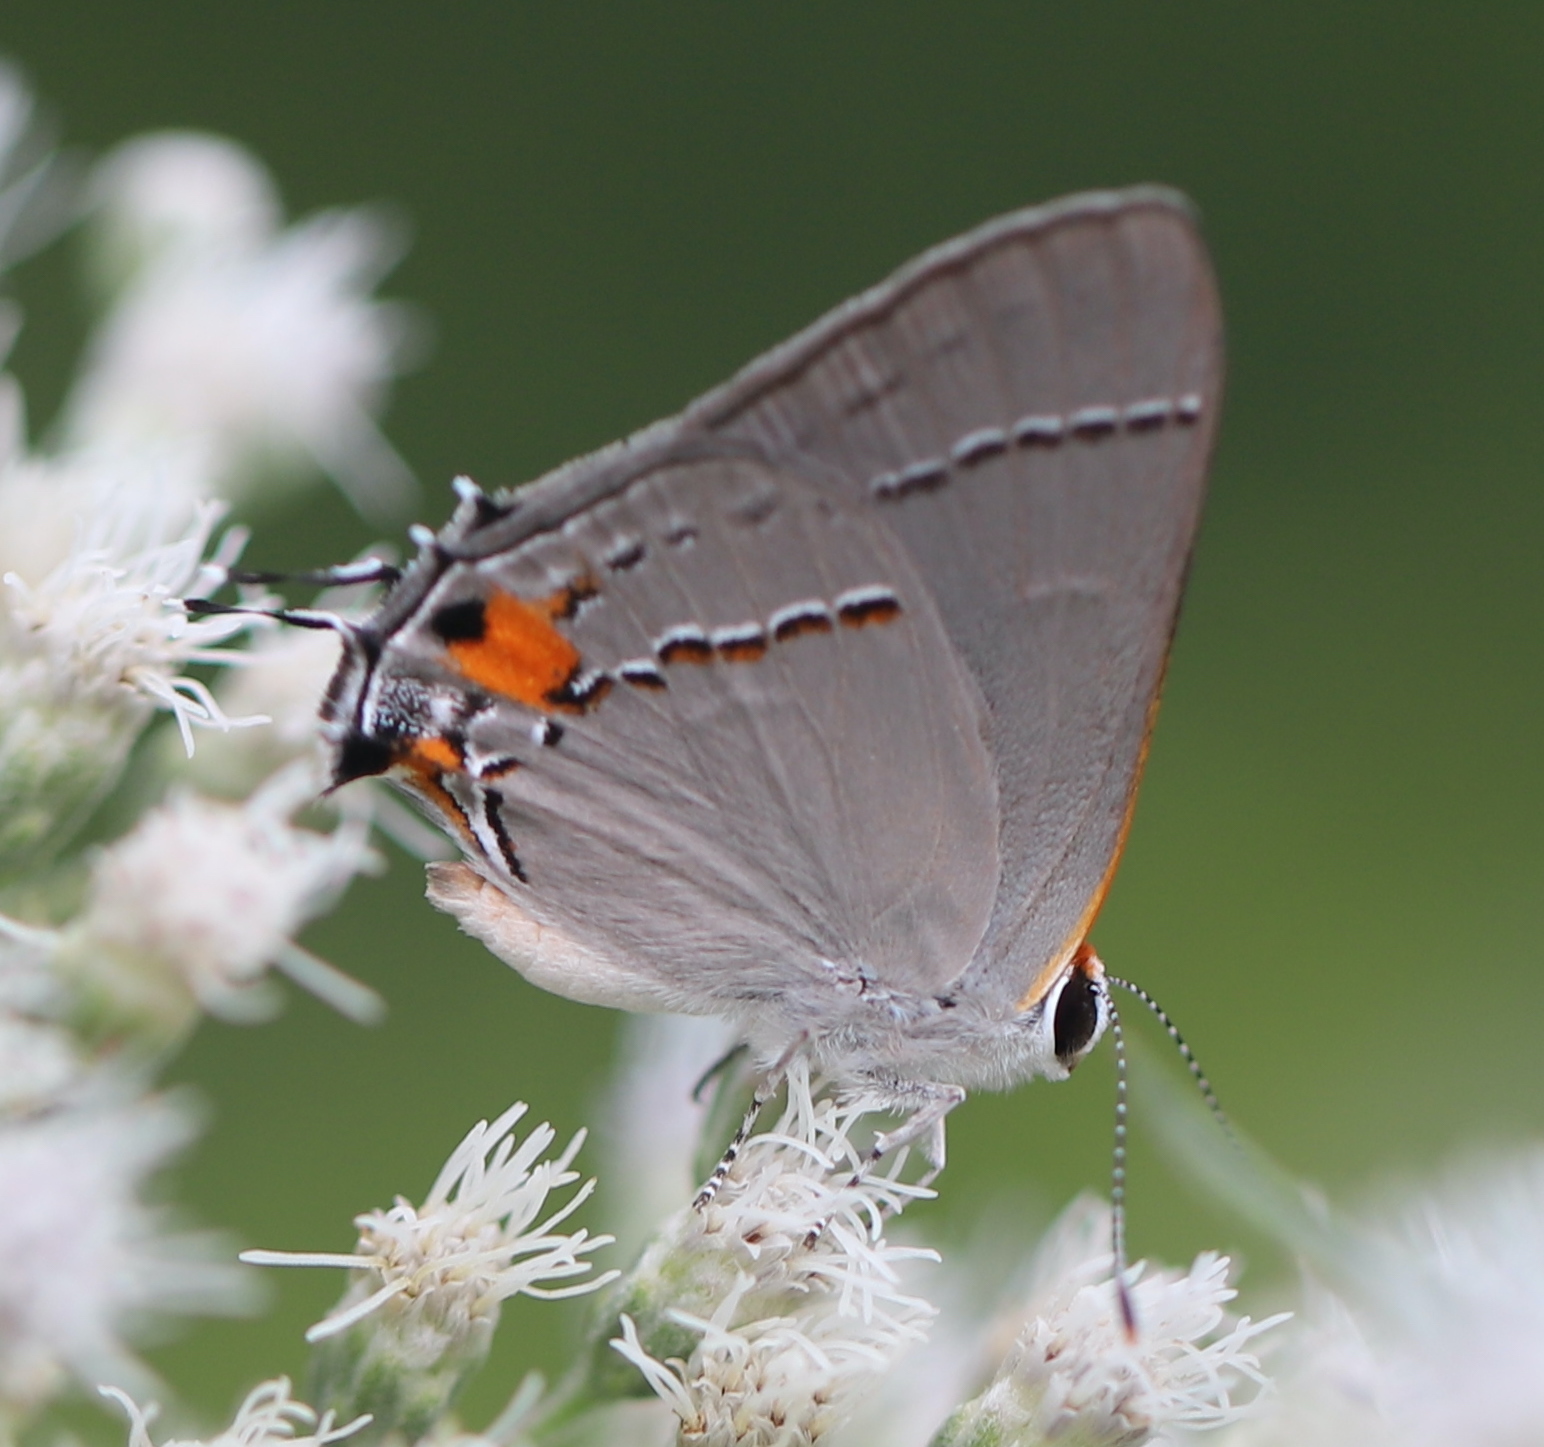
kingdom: Animalia
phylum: Arthropoda
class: Insecta
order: Lepidoptera
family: Lycaenidae
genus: Strymon
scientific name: Strymon melinus
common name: Gray hairstreak
